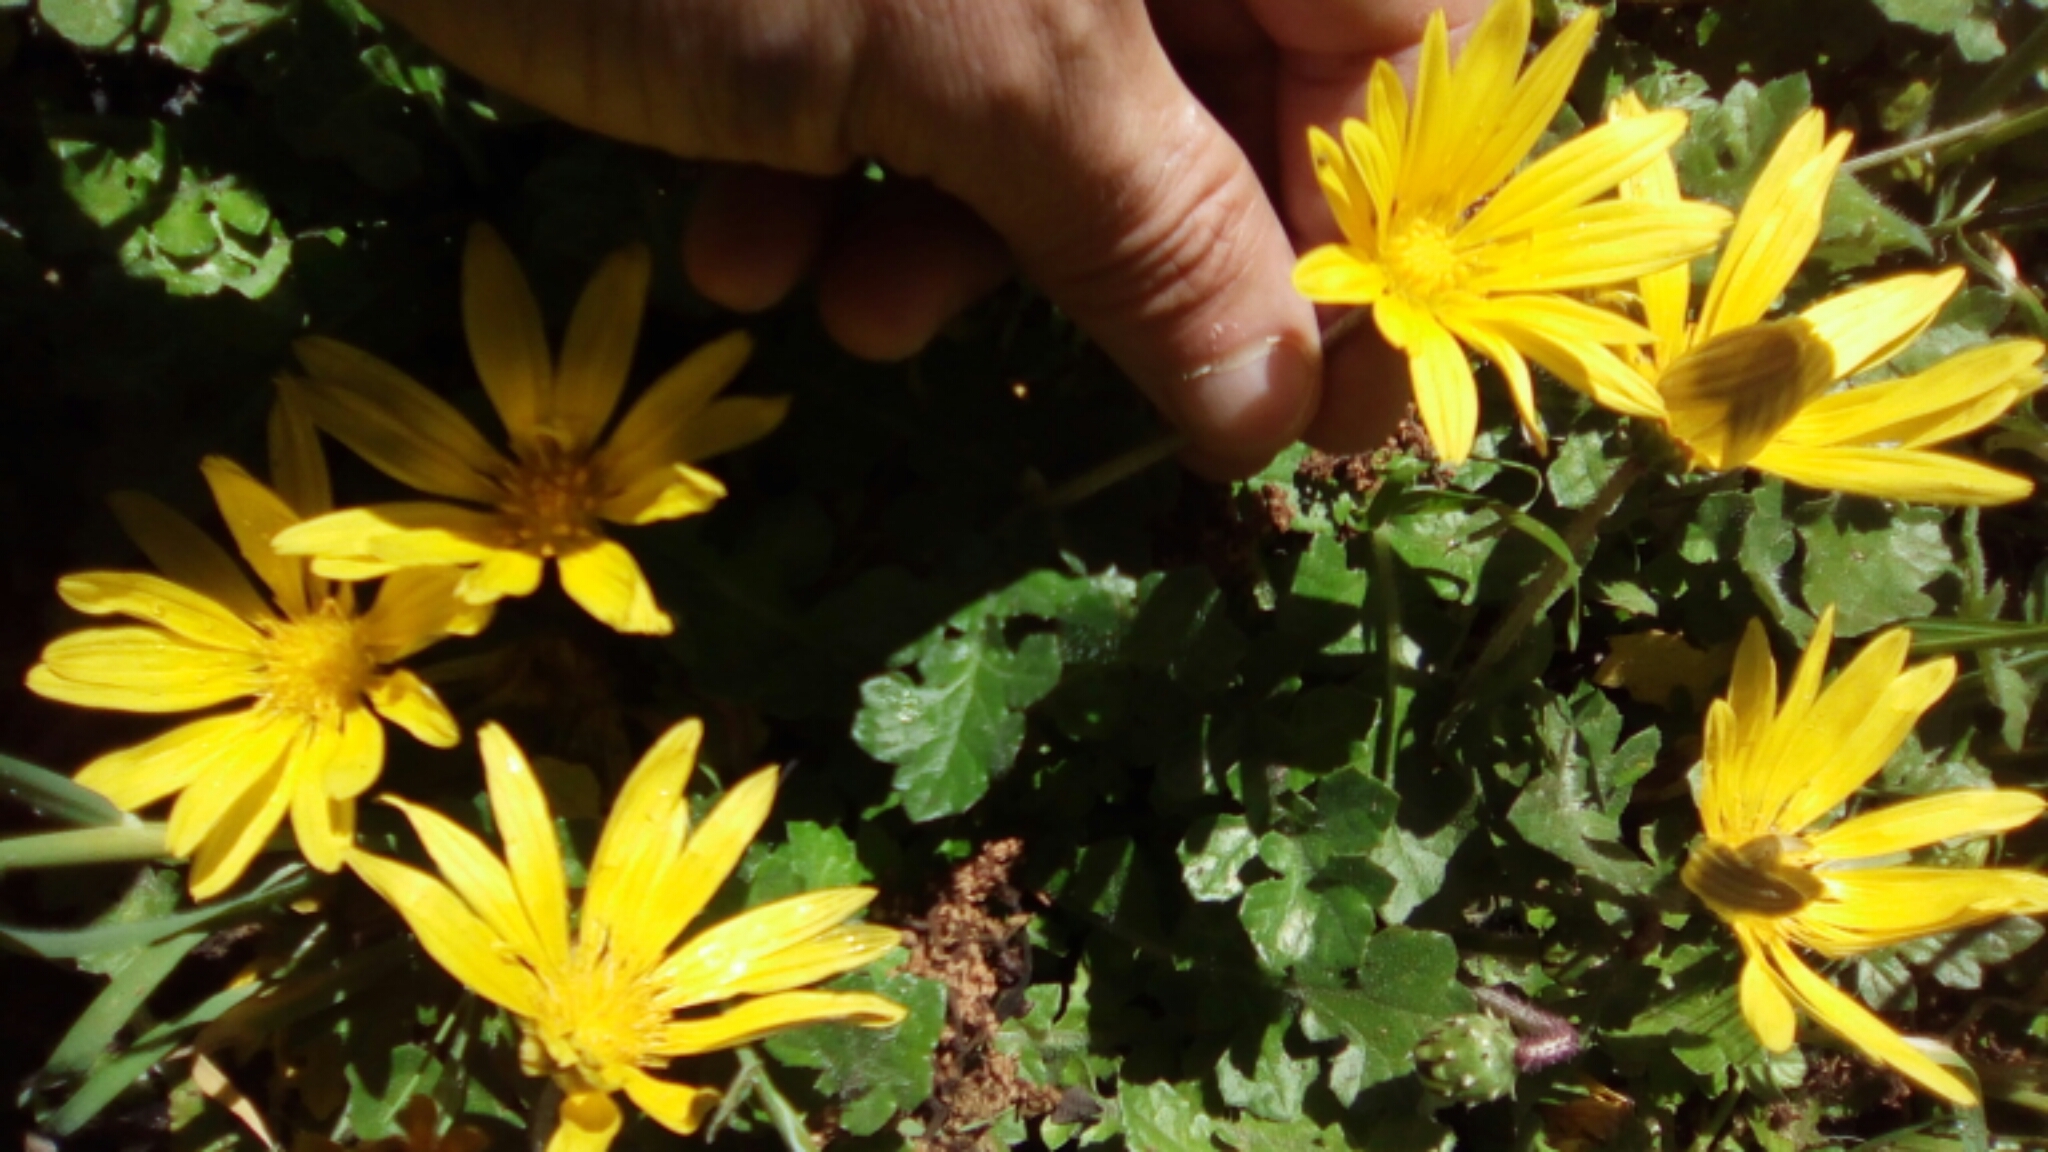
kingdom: Plantae
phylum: Tracheophyta
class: Magnoliopsida
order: Asterales
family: Asteraceae
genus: Arctotheca
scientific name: Arctotheca prostrata
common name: Capeweed
